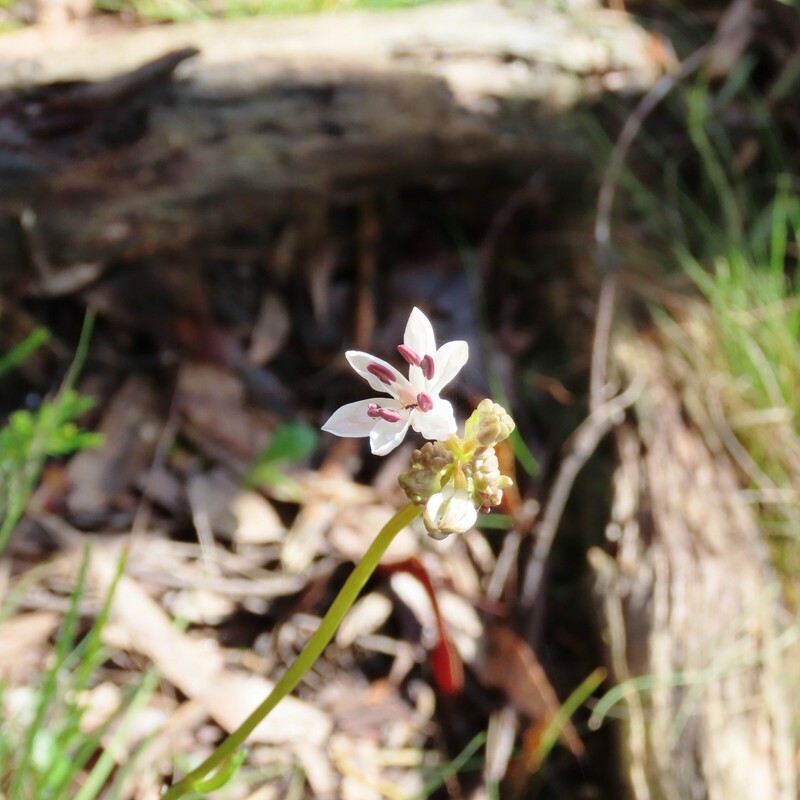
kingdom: Plantae
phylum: Tracheophyta
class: Liliopsida
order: Liliales
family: Colchicaceae
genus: Burchardia
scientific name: Burchardia umbellata
